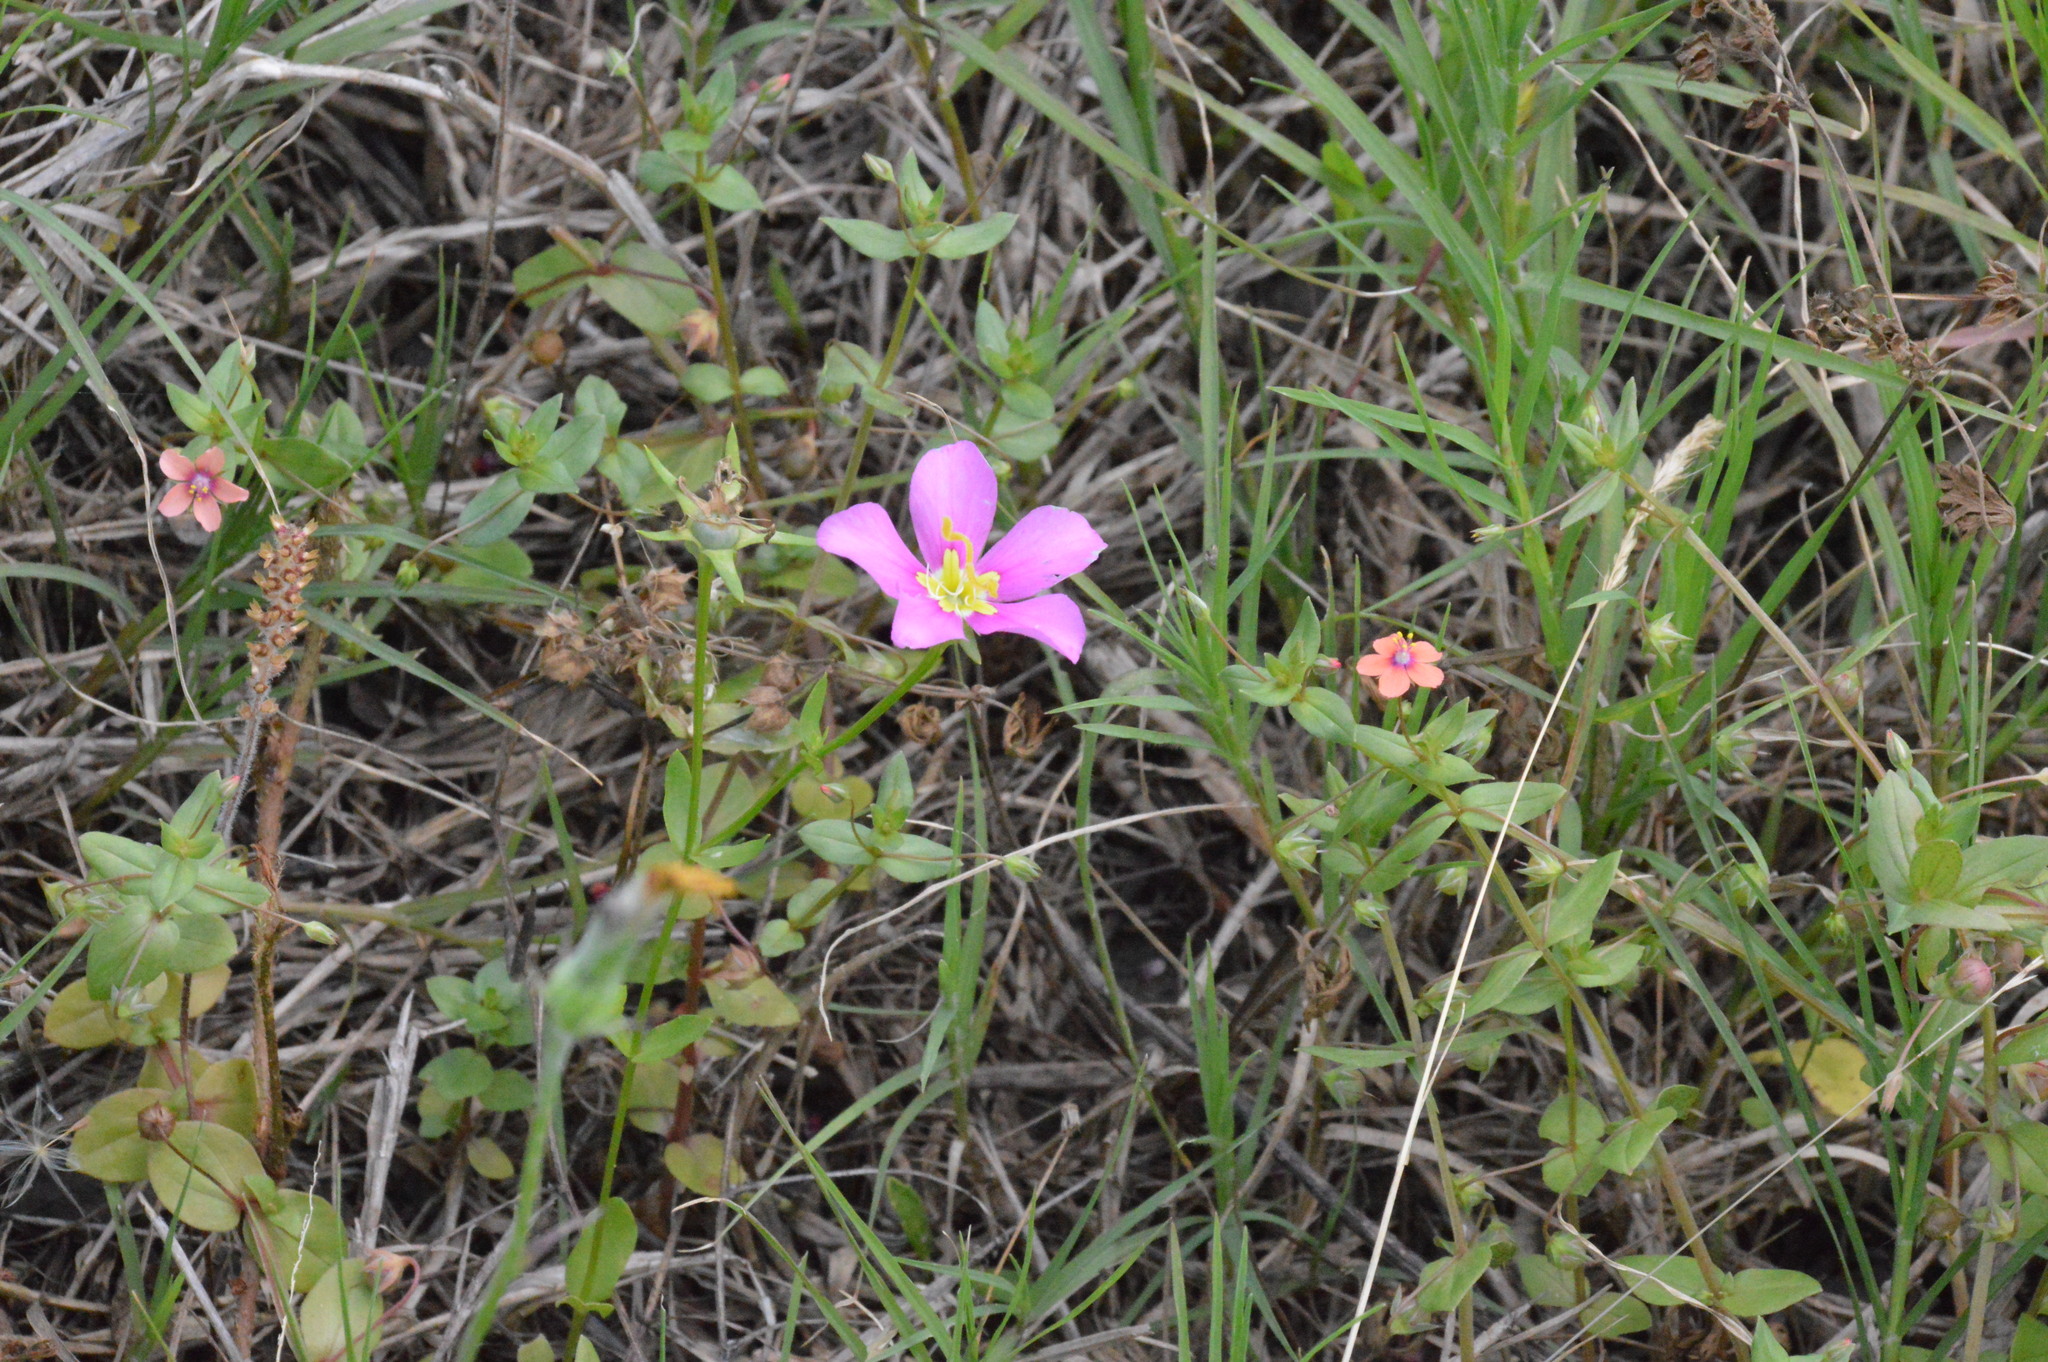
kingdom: Plantae
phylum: Tracheophyta
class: Magnoliopsida
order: Gentianales
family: Gentianaceae
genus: Sabatia
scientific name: Sabatia campestris
